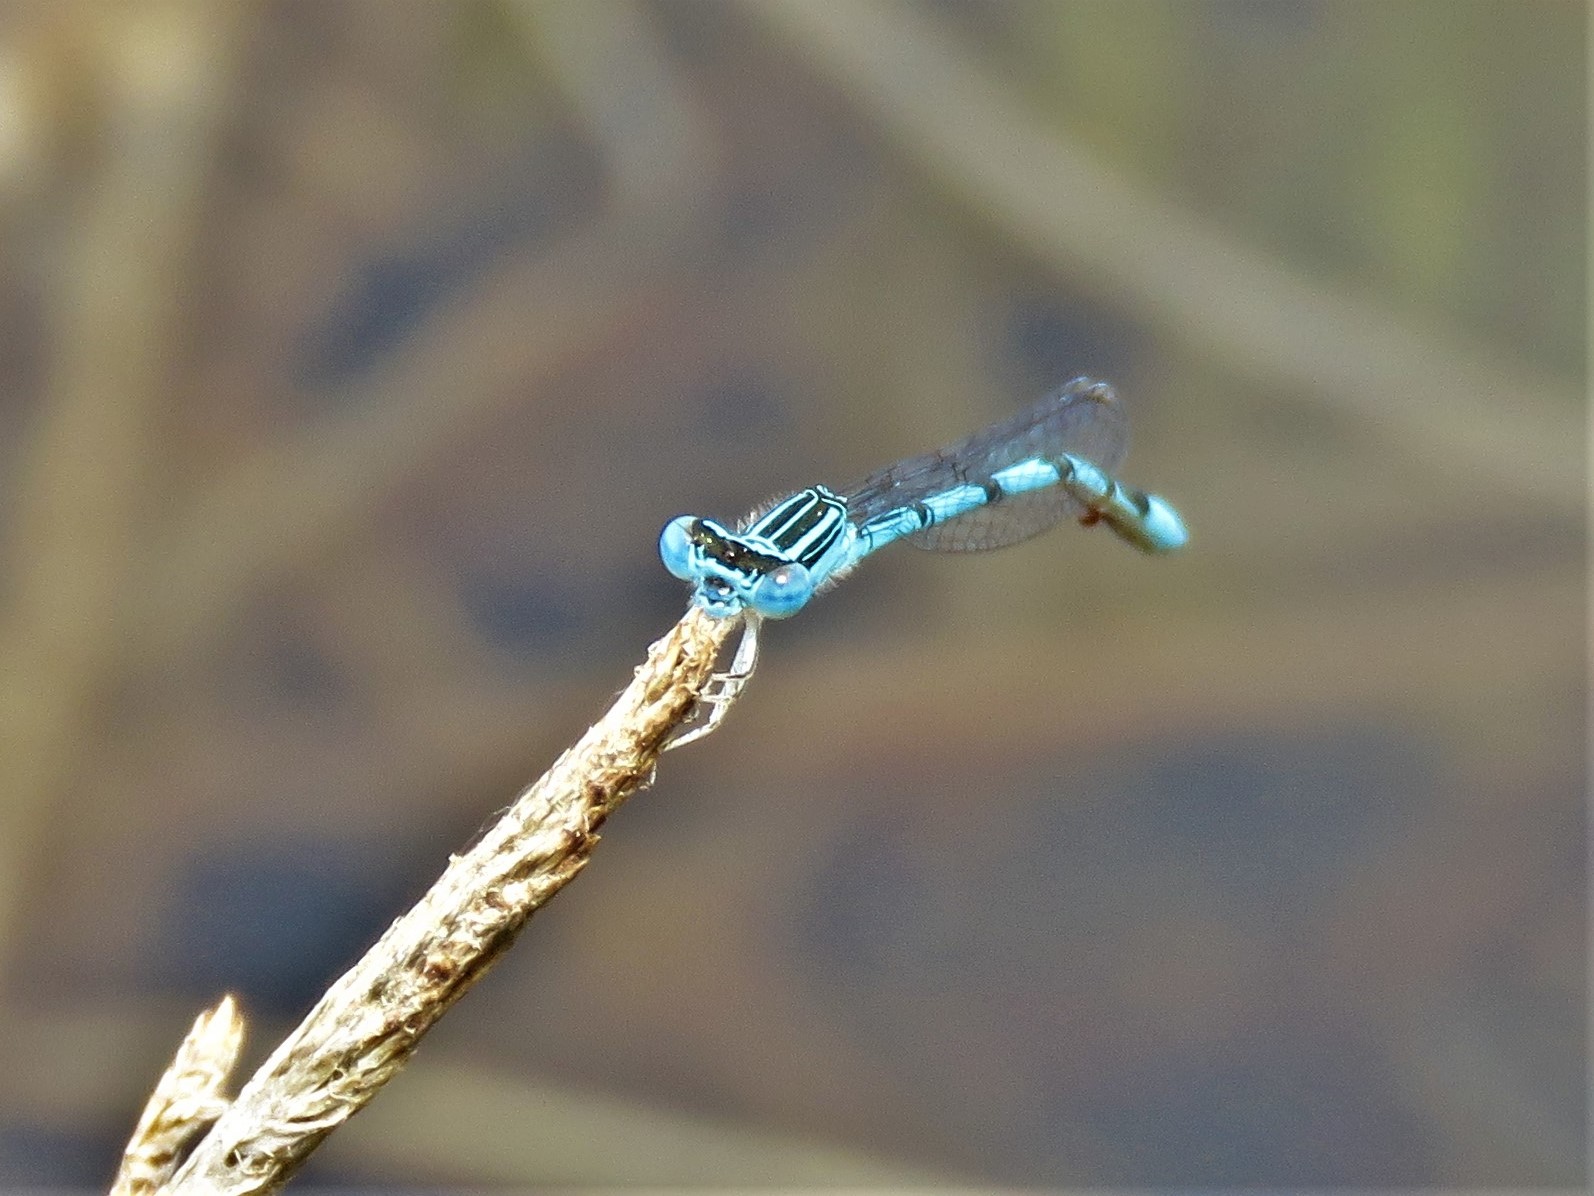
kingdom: Animalia
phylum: Arthropoda
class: Insecta
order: Odonata
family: Coenagrionidae
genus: Enallagma
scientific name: Enallagma basidens
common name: Double-striped bluet
